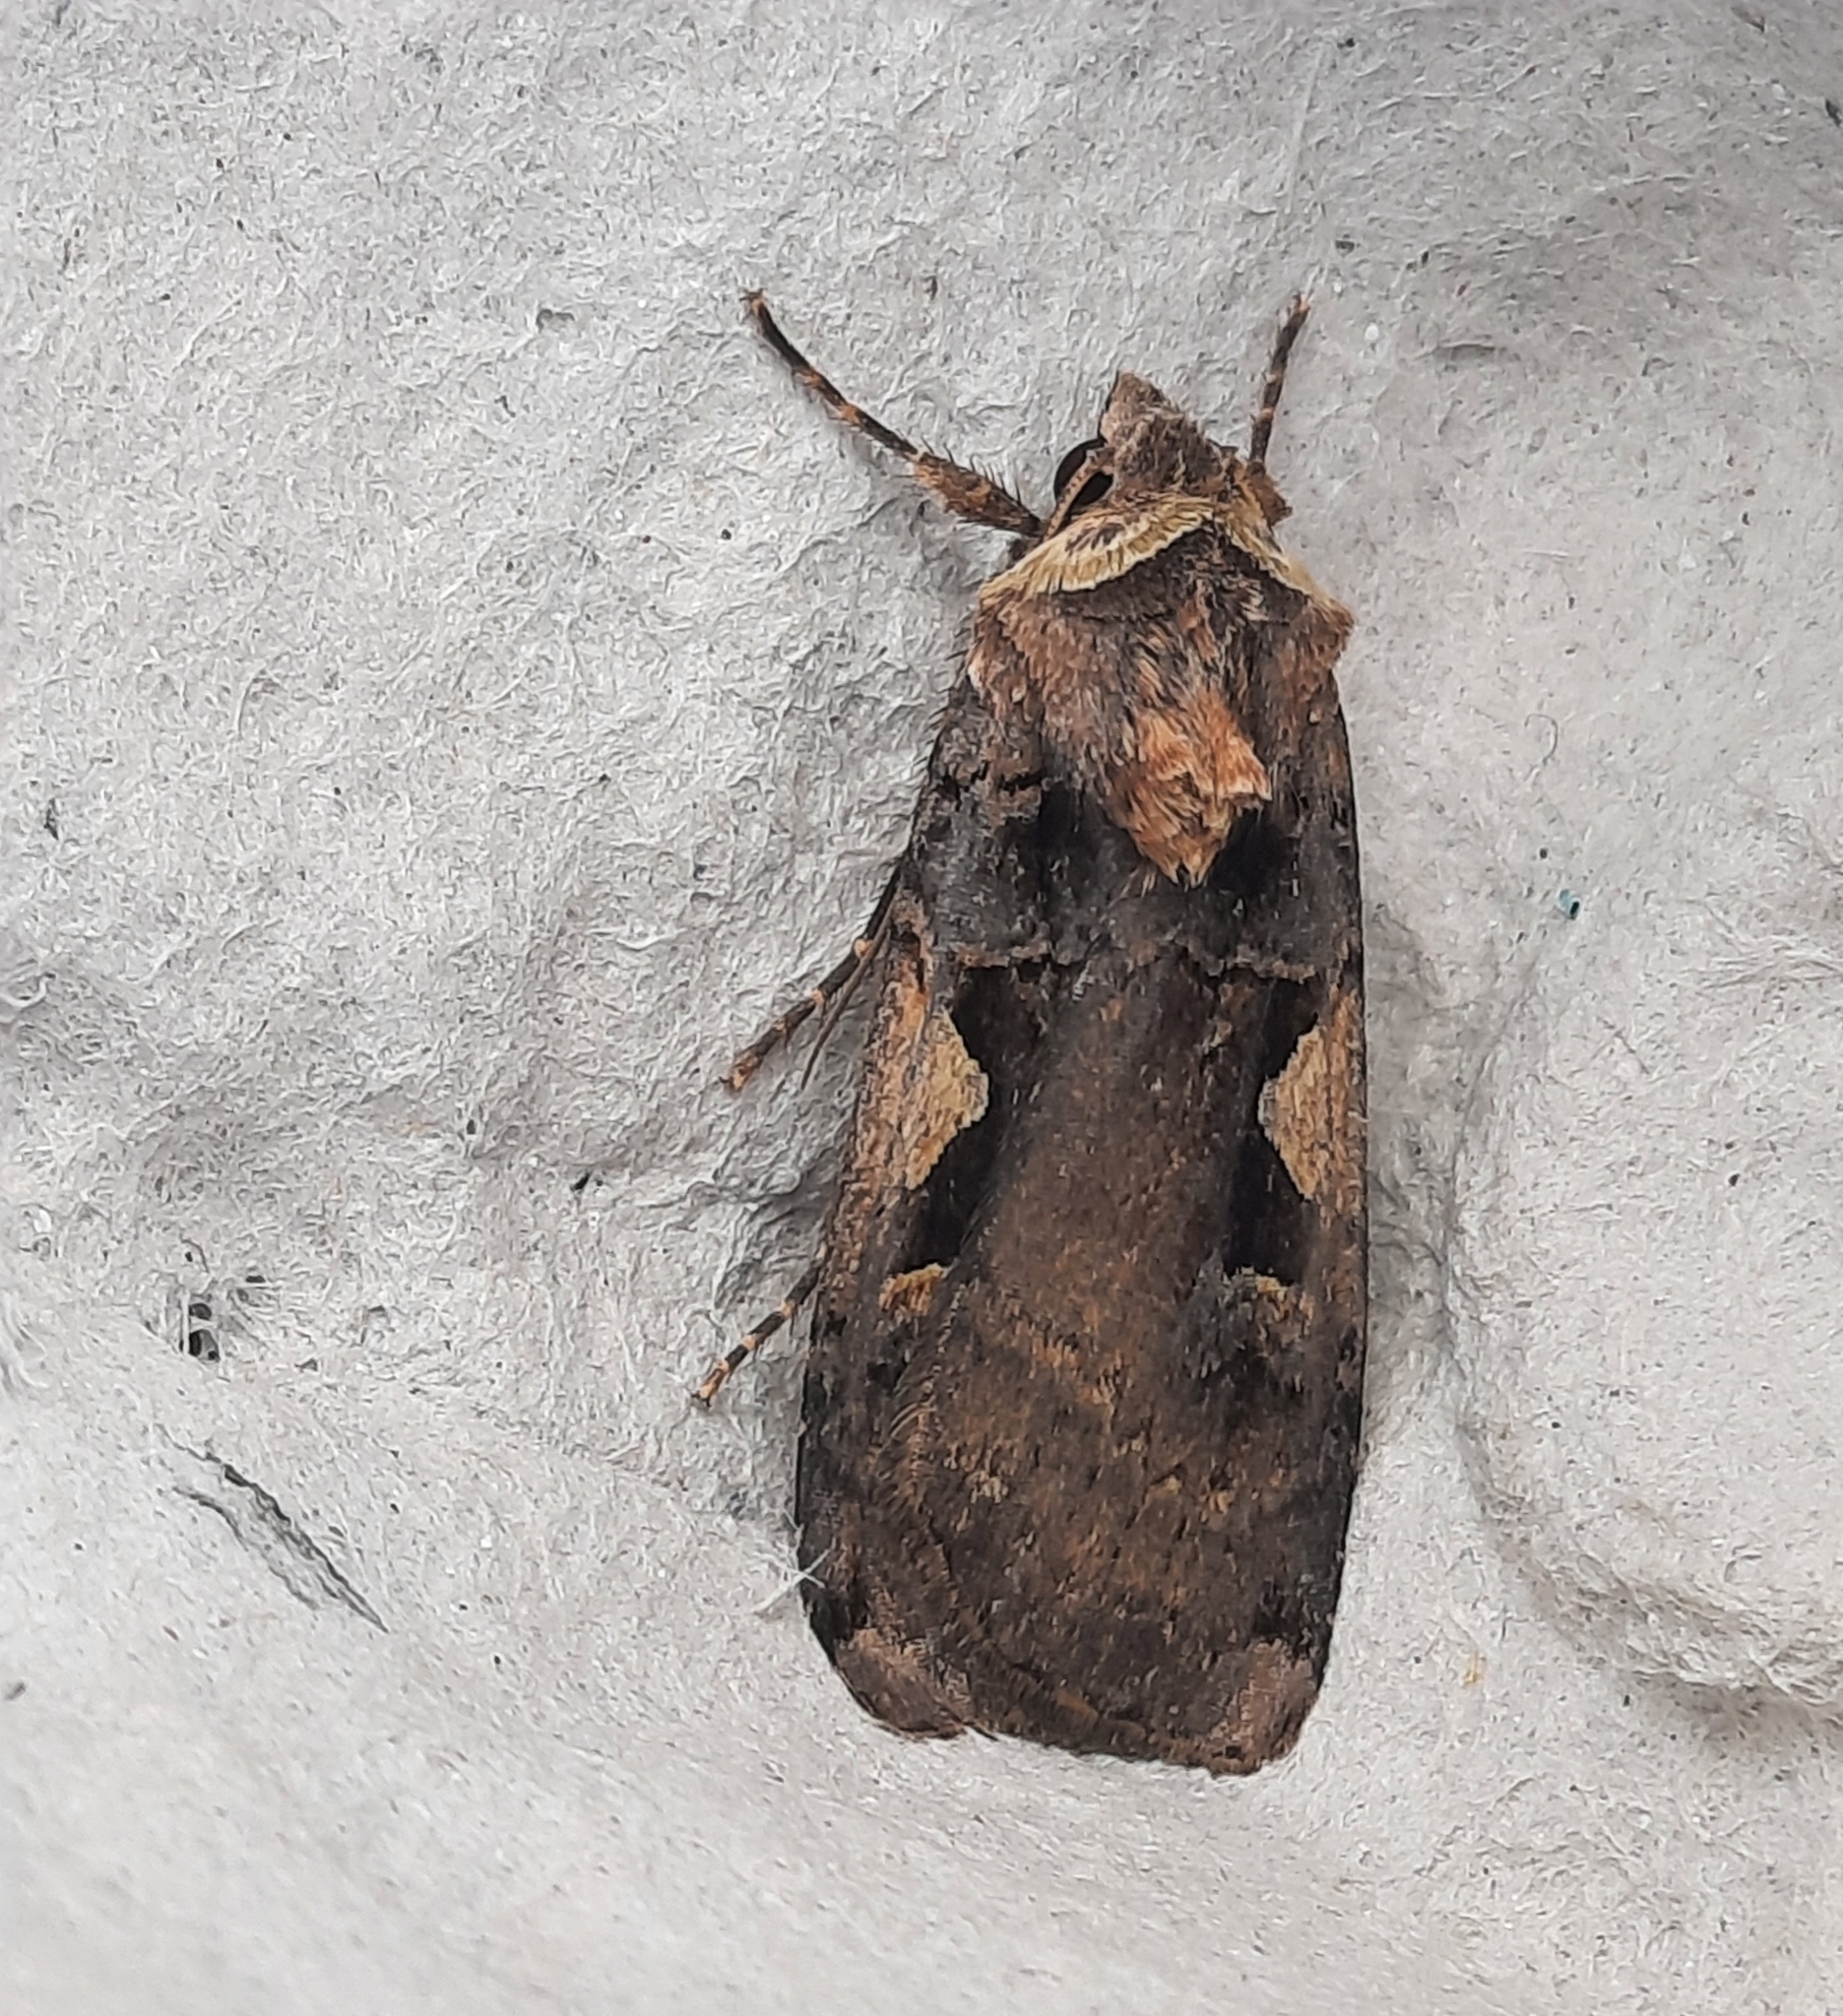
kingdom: Animalia
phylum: Arthropoda
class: Insecta
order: Lepidoptera
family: Noctuidae
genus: Xestia
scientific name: Xestia c-nigrum
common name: Setaceous hebrew character
